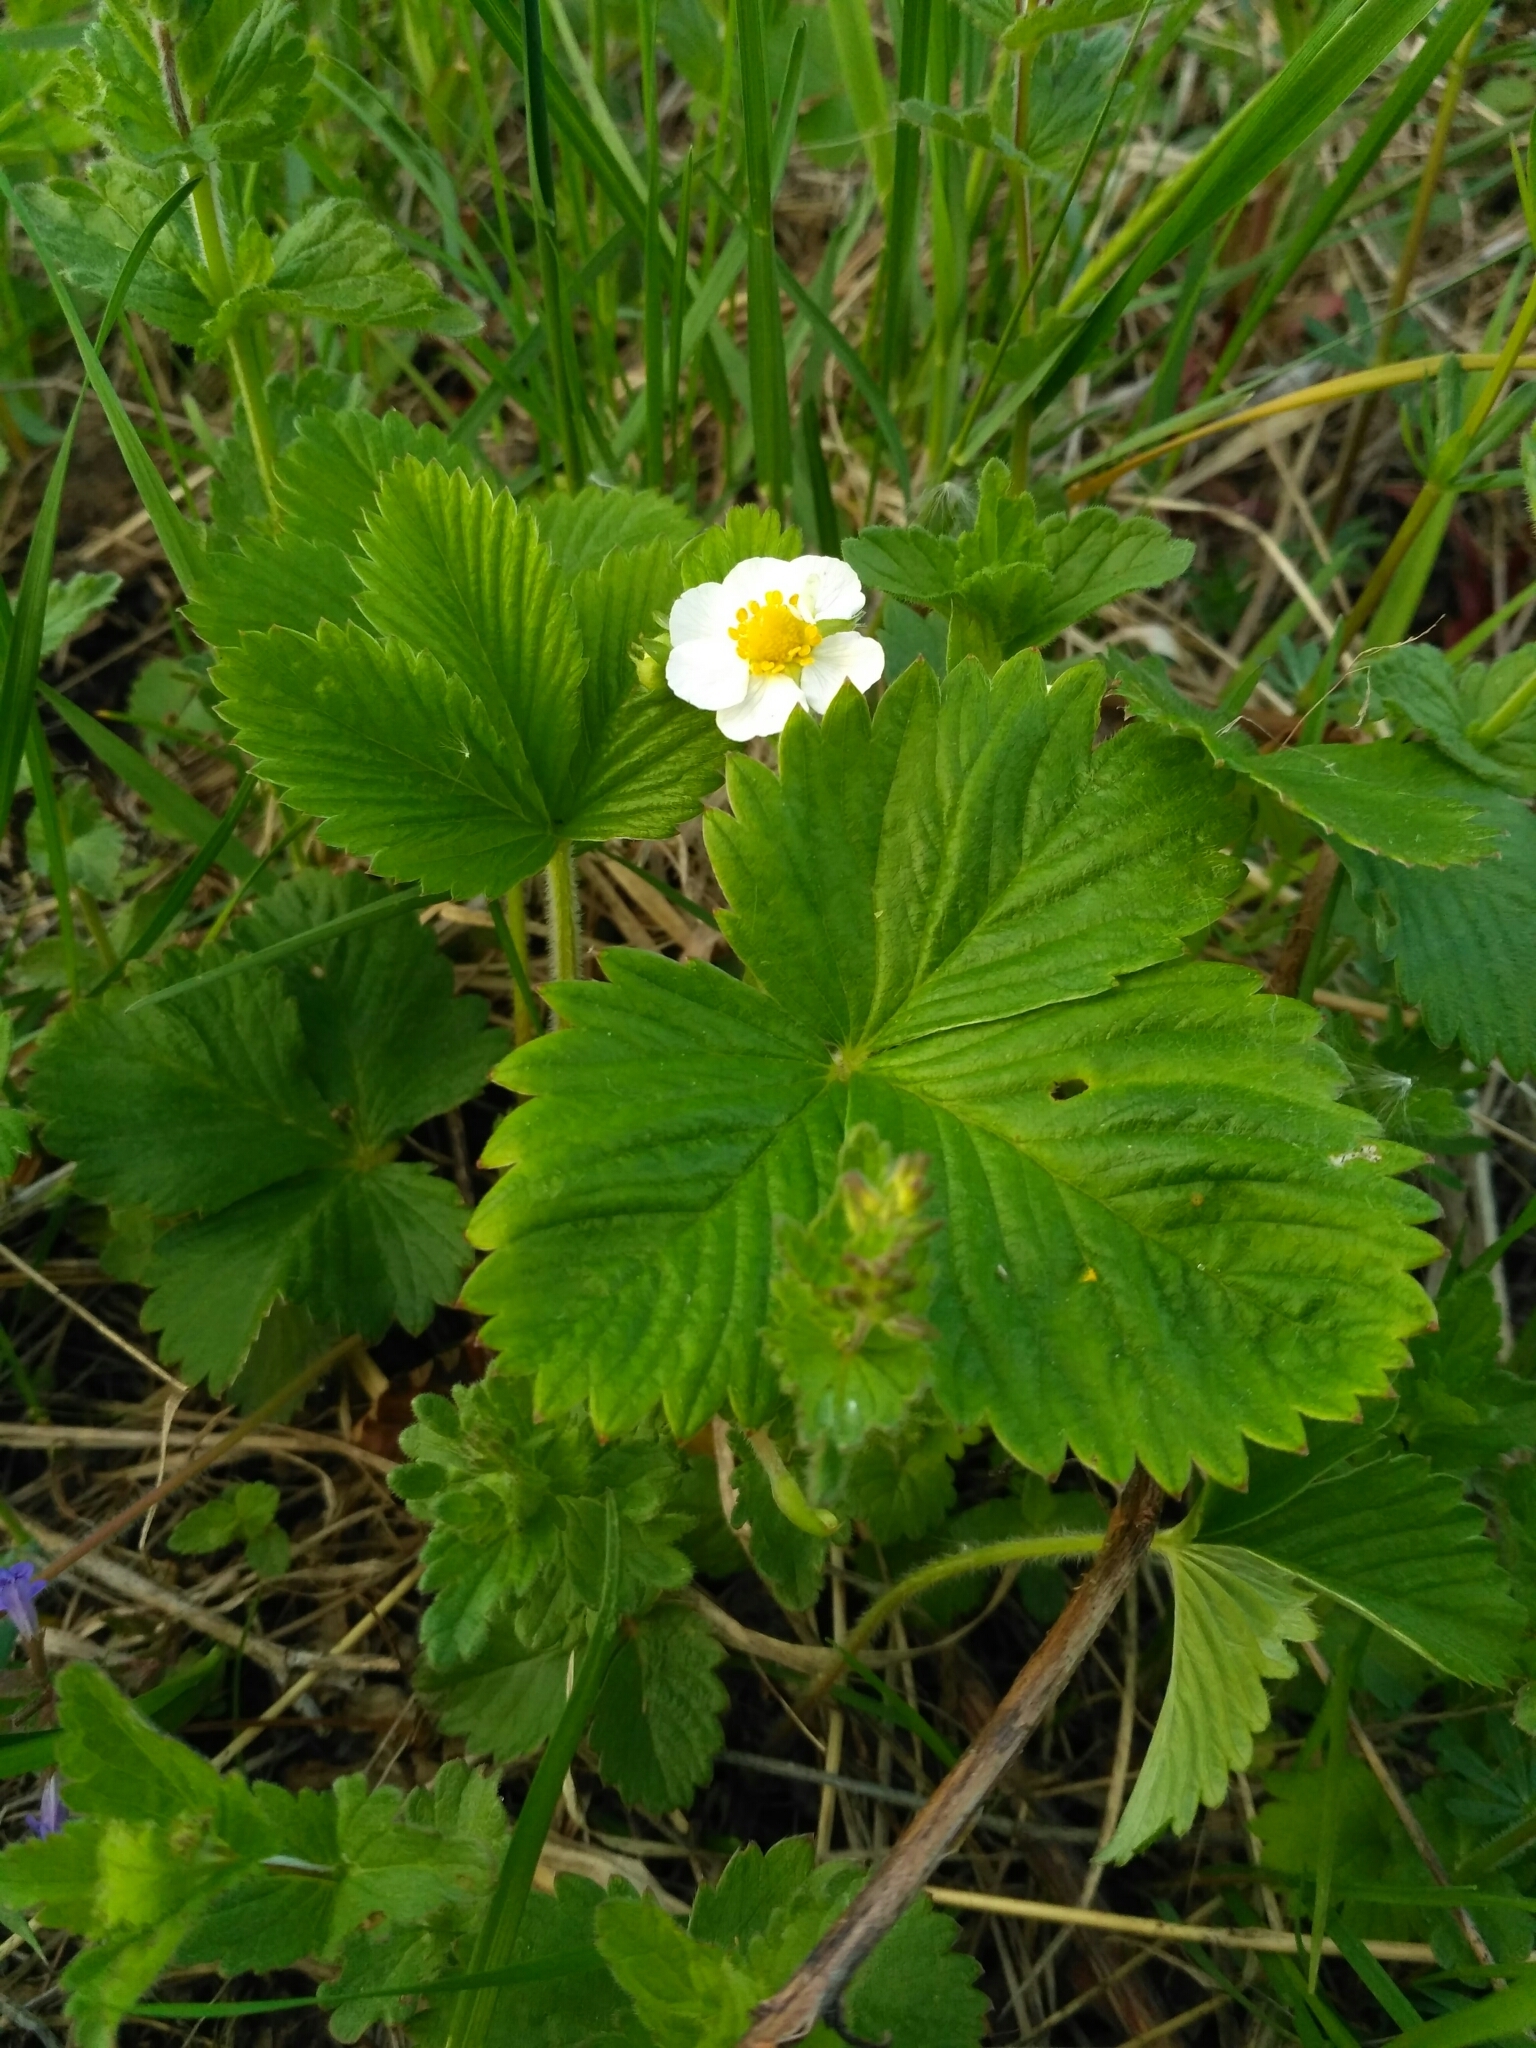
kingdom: Plantae
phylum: Tracheophyta
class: Magnoliopsida
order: Rosales
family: Rosaceae
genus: Fragaria
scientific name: Fragaria vesca
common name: Wild strawberry
